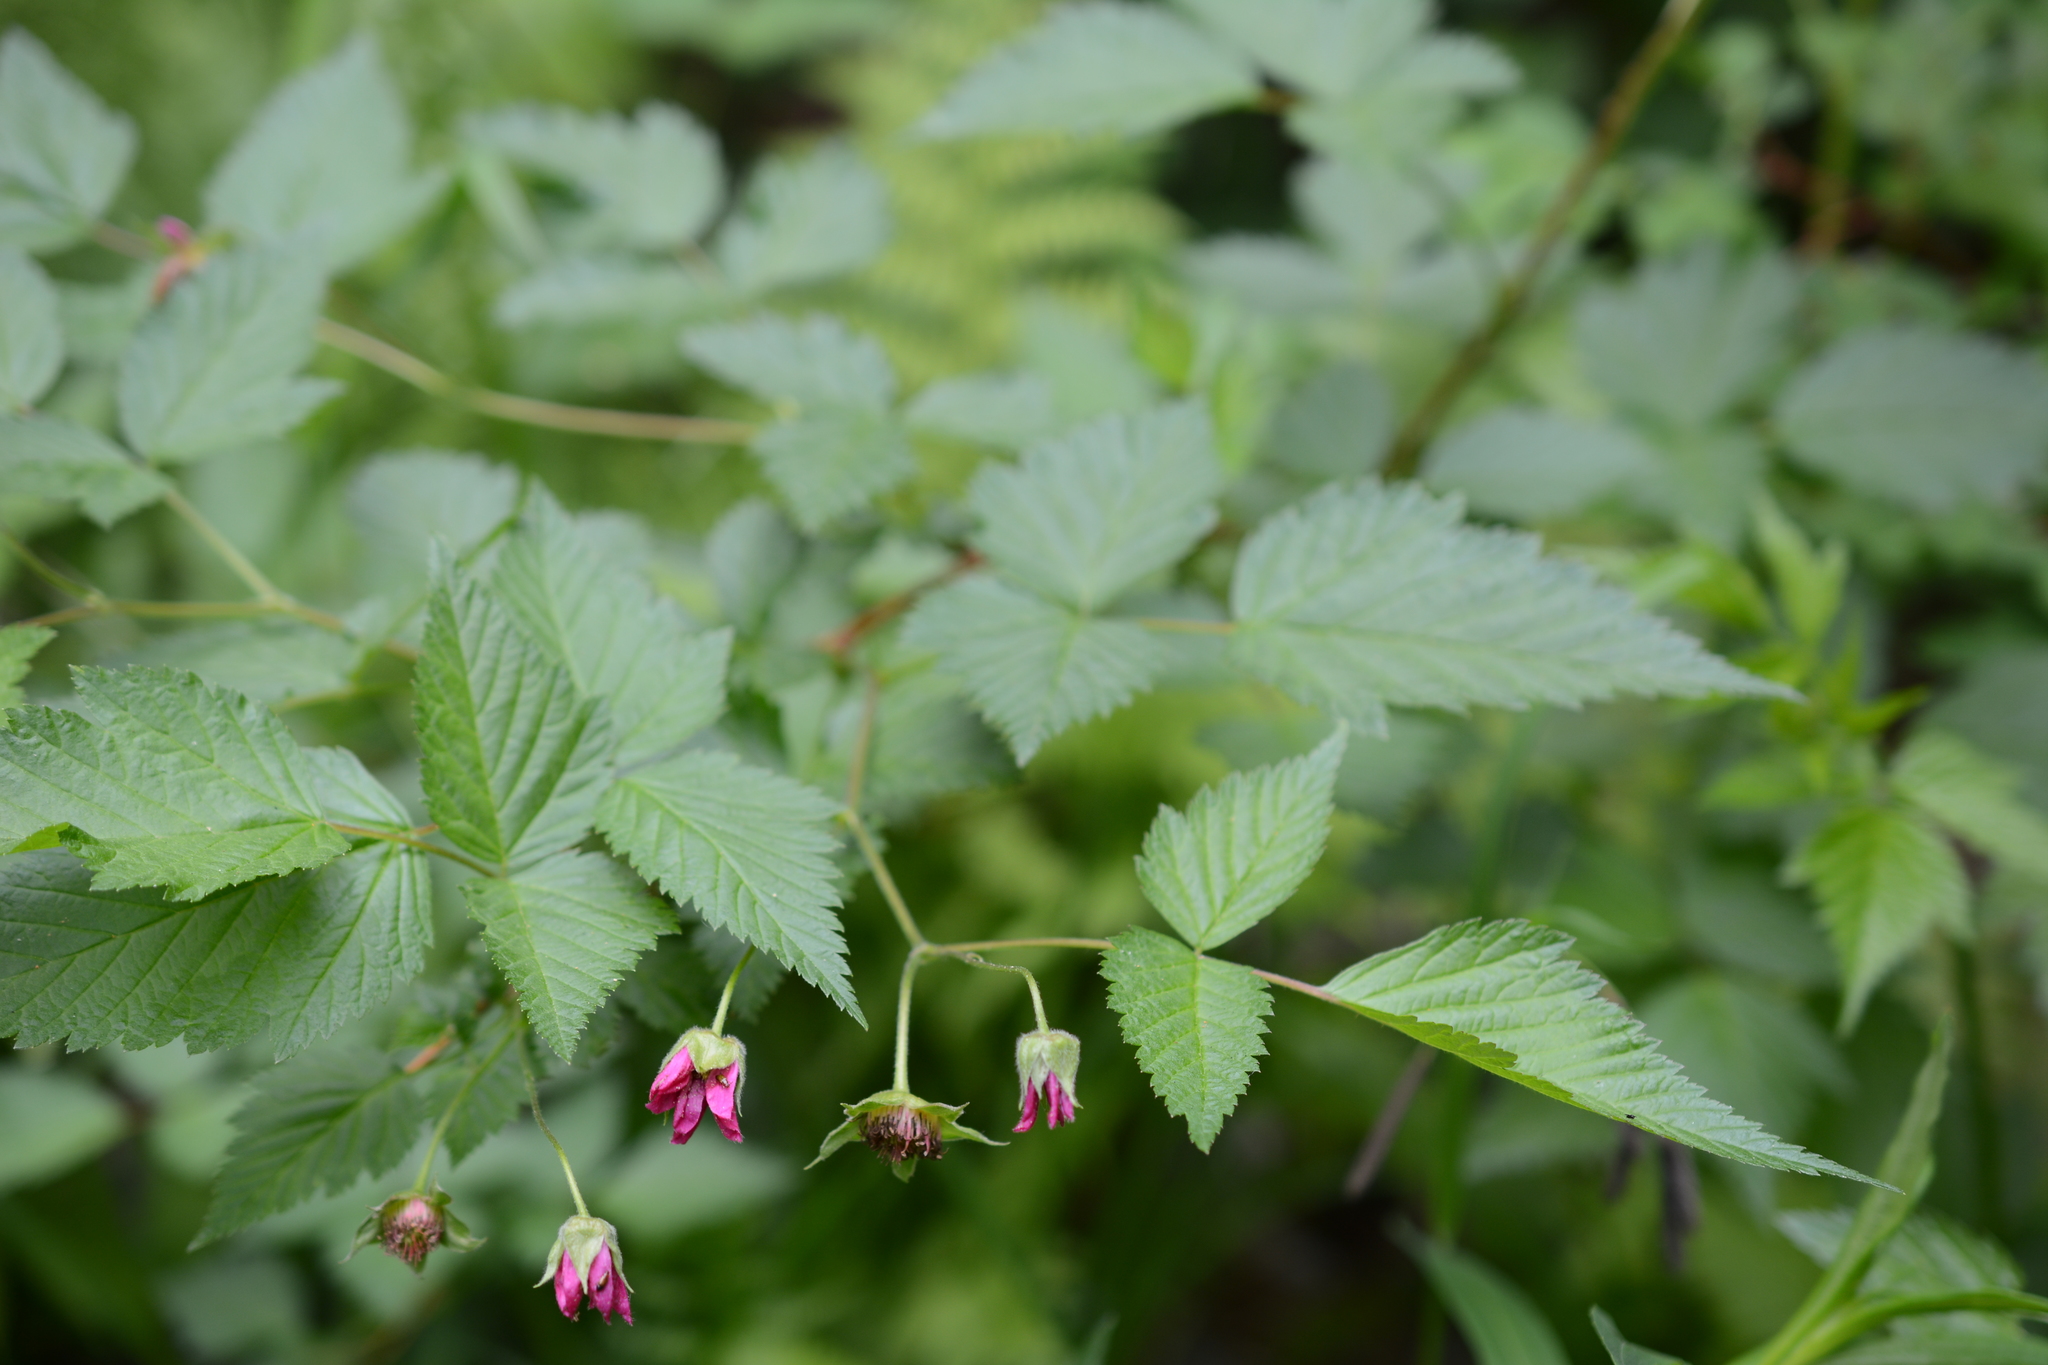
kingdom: Plantae
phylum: Tracheophyta
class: Magnoliopsida
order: Rosales
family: Rosaceae
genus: Rubus
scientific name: Rubus spectabilis
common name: Salmonberry
